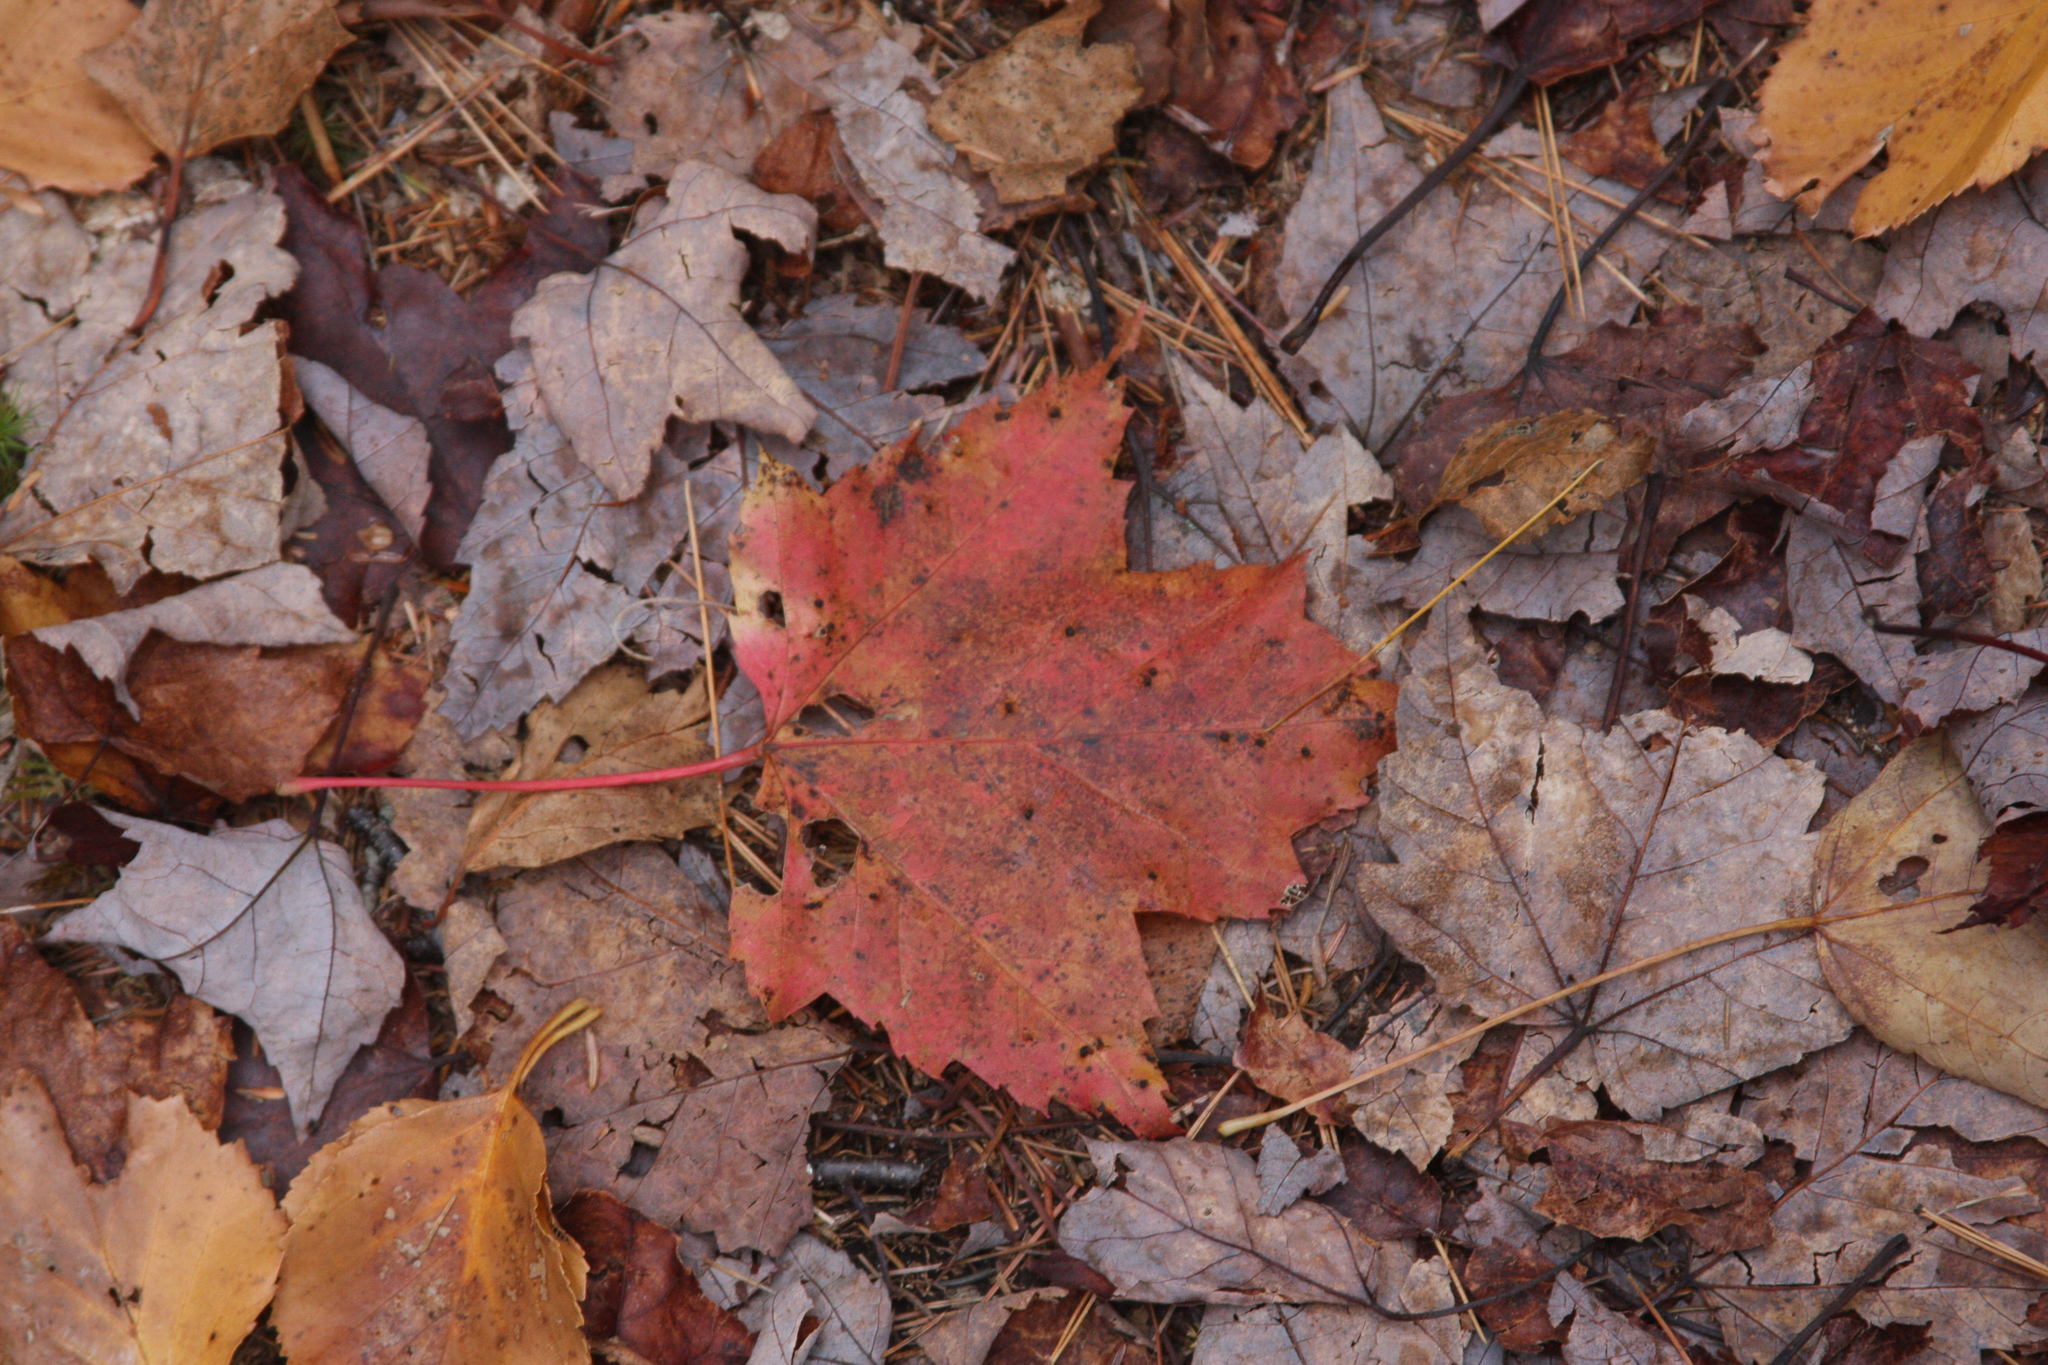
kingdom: Plantae
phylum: Tracheophyta
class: Magnoliopsida
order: Sapindales
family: Sapindaceae
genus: Acer
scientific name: Acer rubrum
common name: Red maple
